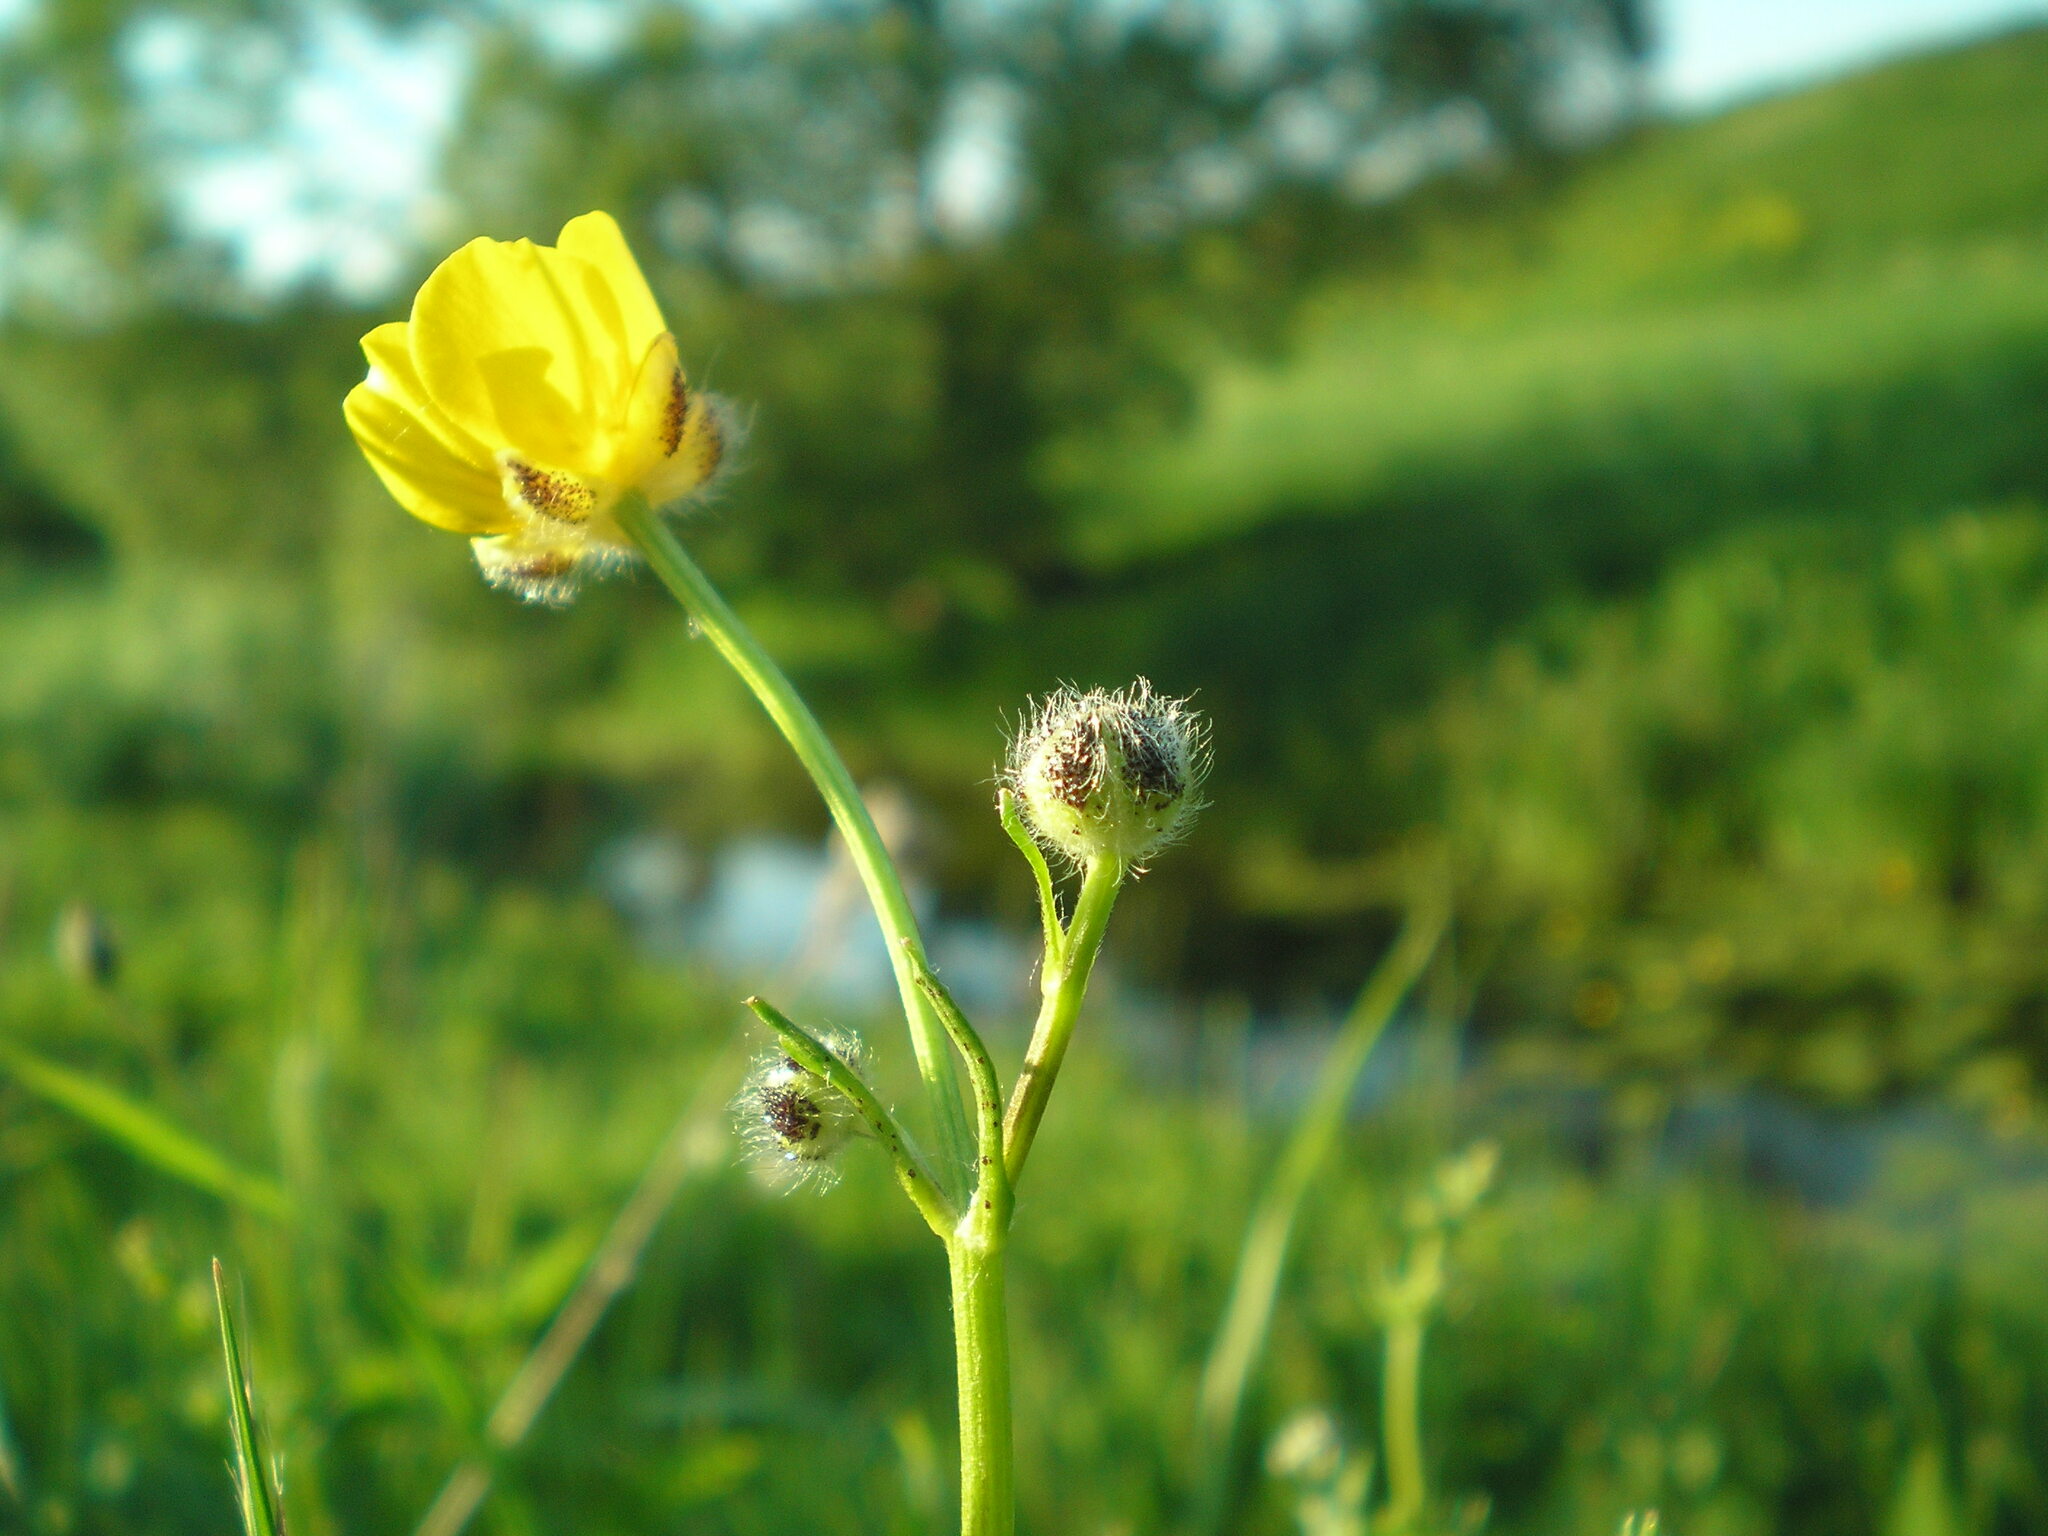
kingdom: Plantae
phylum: Tracheophyta
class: Magnoliopsida
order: Ranunculales
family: Ranunculaceae
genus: Ranunculus
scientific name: Ranunculus polyanthemos
